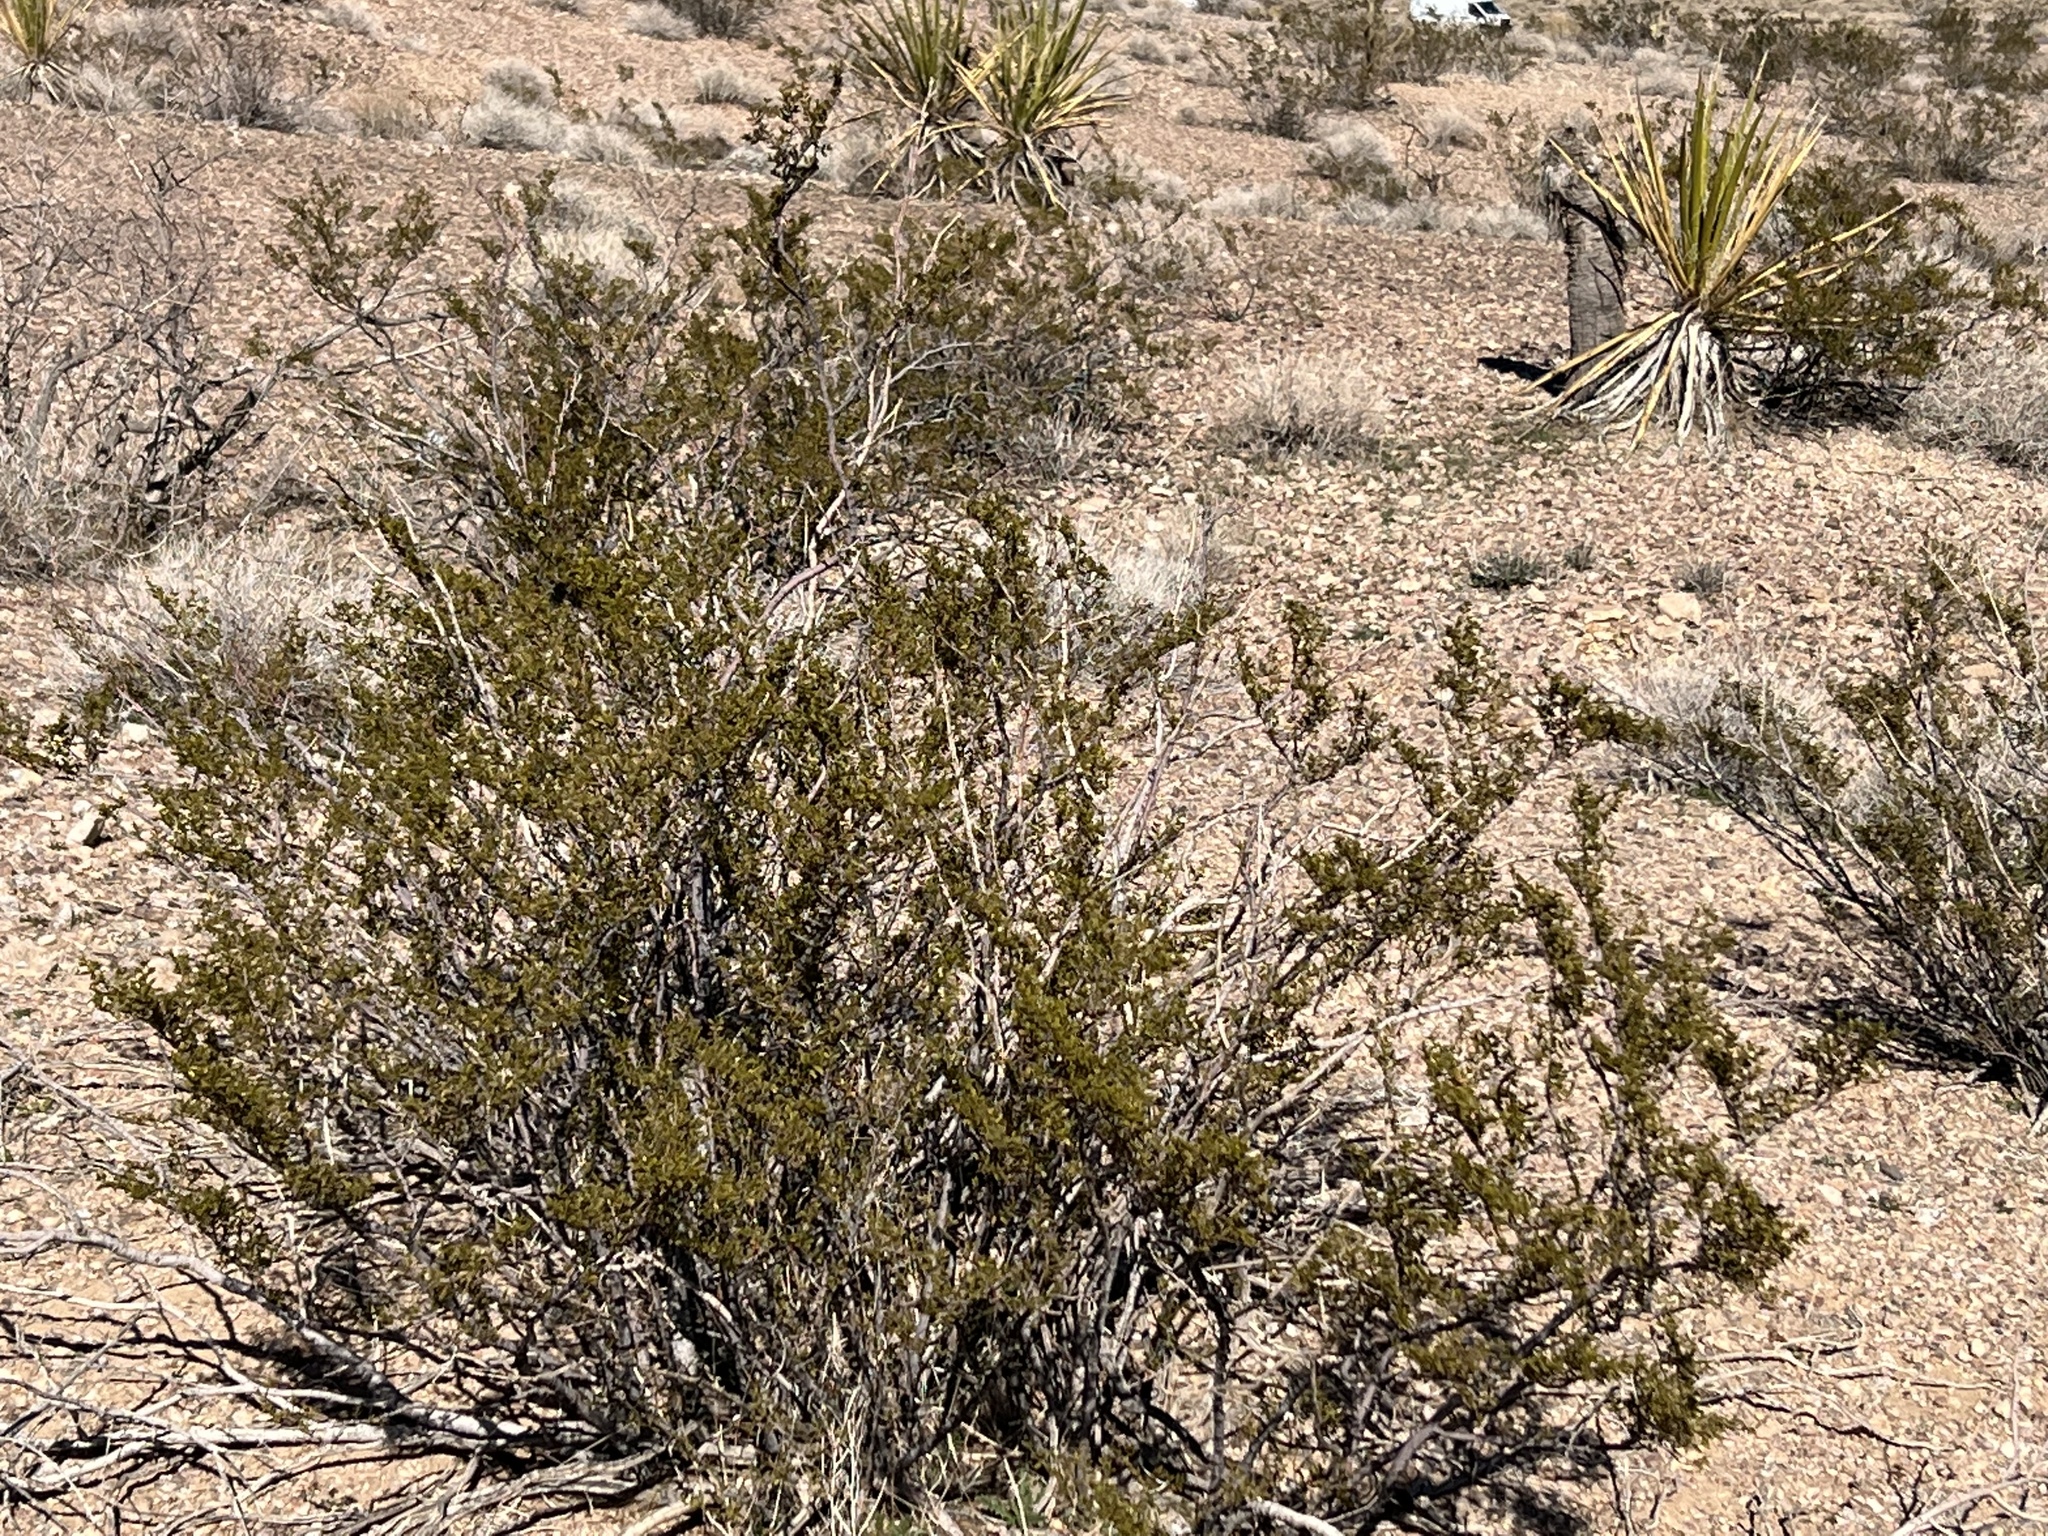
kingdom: Plantae
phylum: Tracheophyta
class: Magnoliopsida
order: Zygophyllales
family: Zygophyllaceae
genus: Larrea
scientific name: Larrea tridentata
